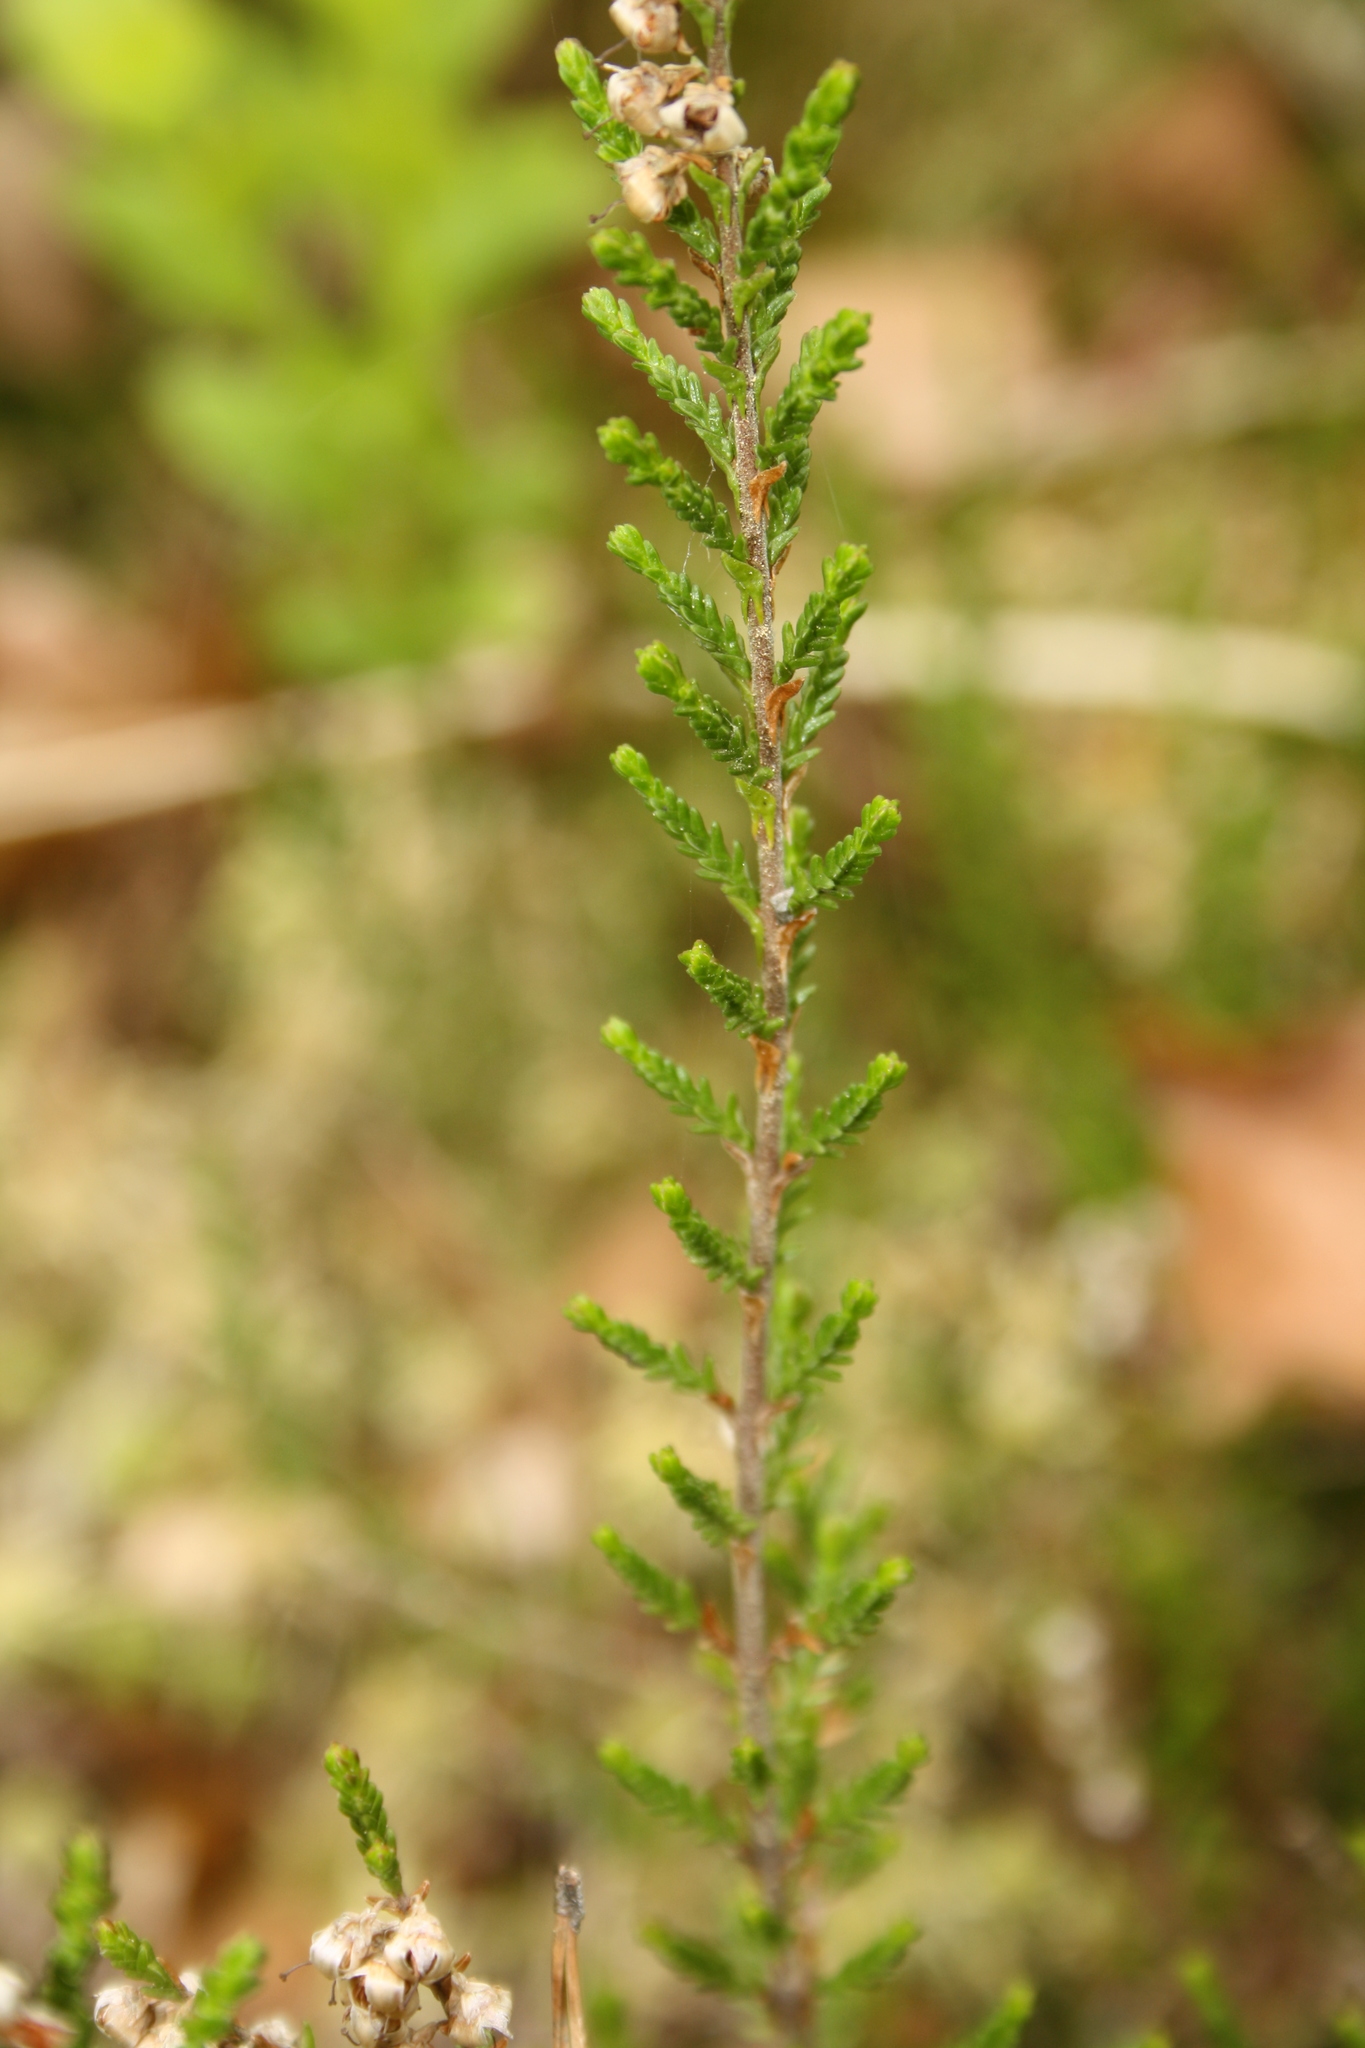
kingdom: Plantae
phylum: Tracheophyta
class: Magnoliopsida
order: Ericales
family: Ericaceae
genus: Calluna
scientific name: Calluna vulgaris
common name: Heather
